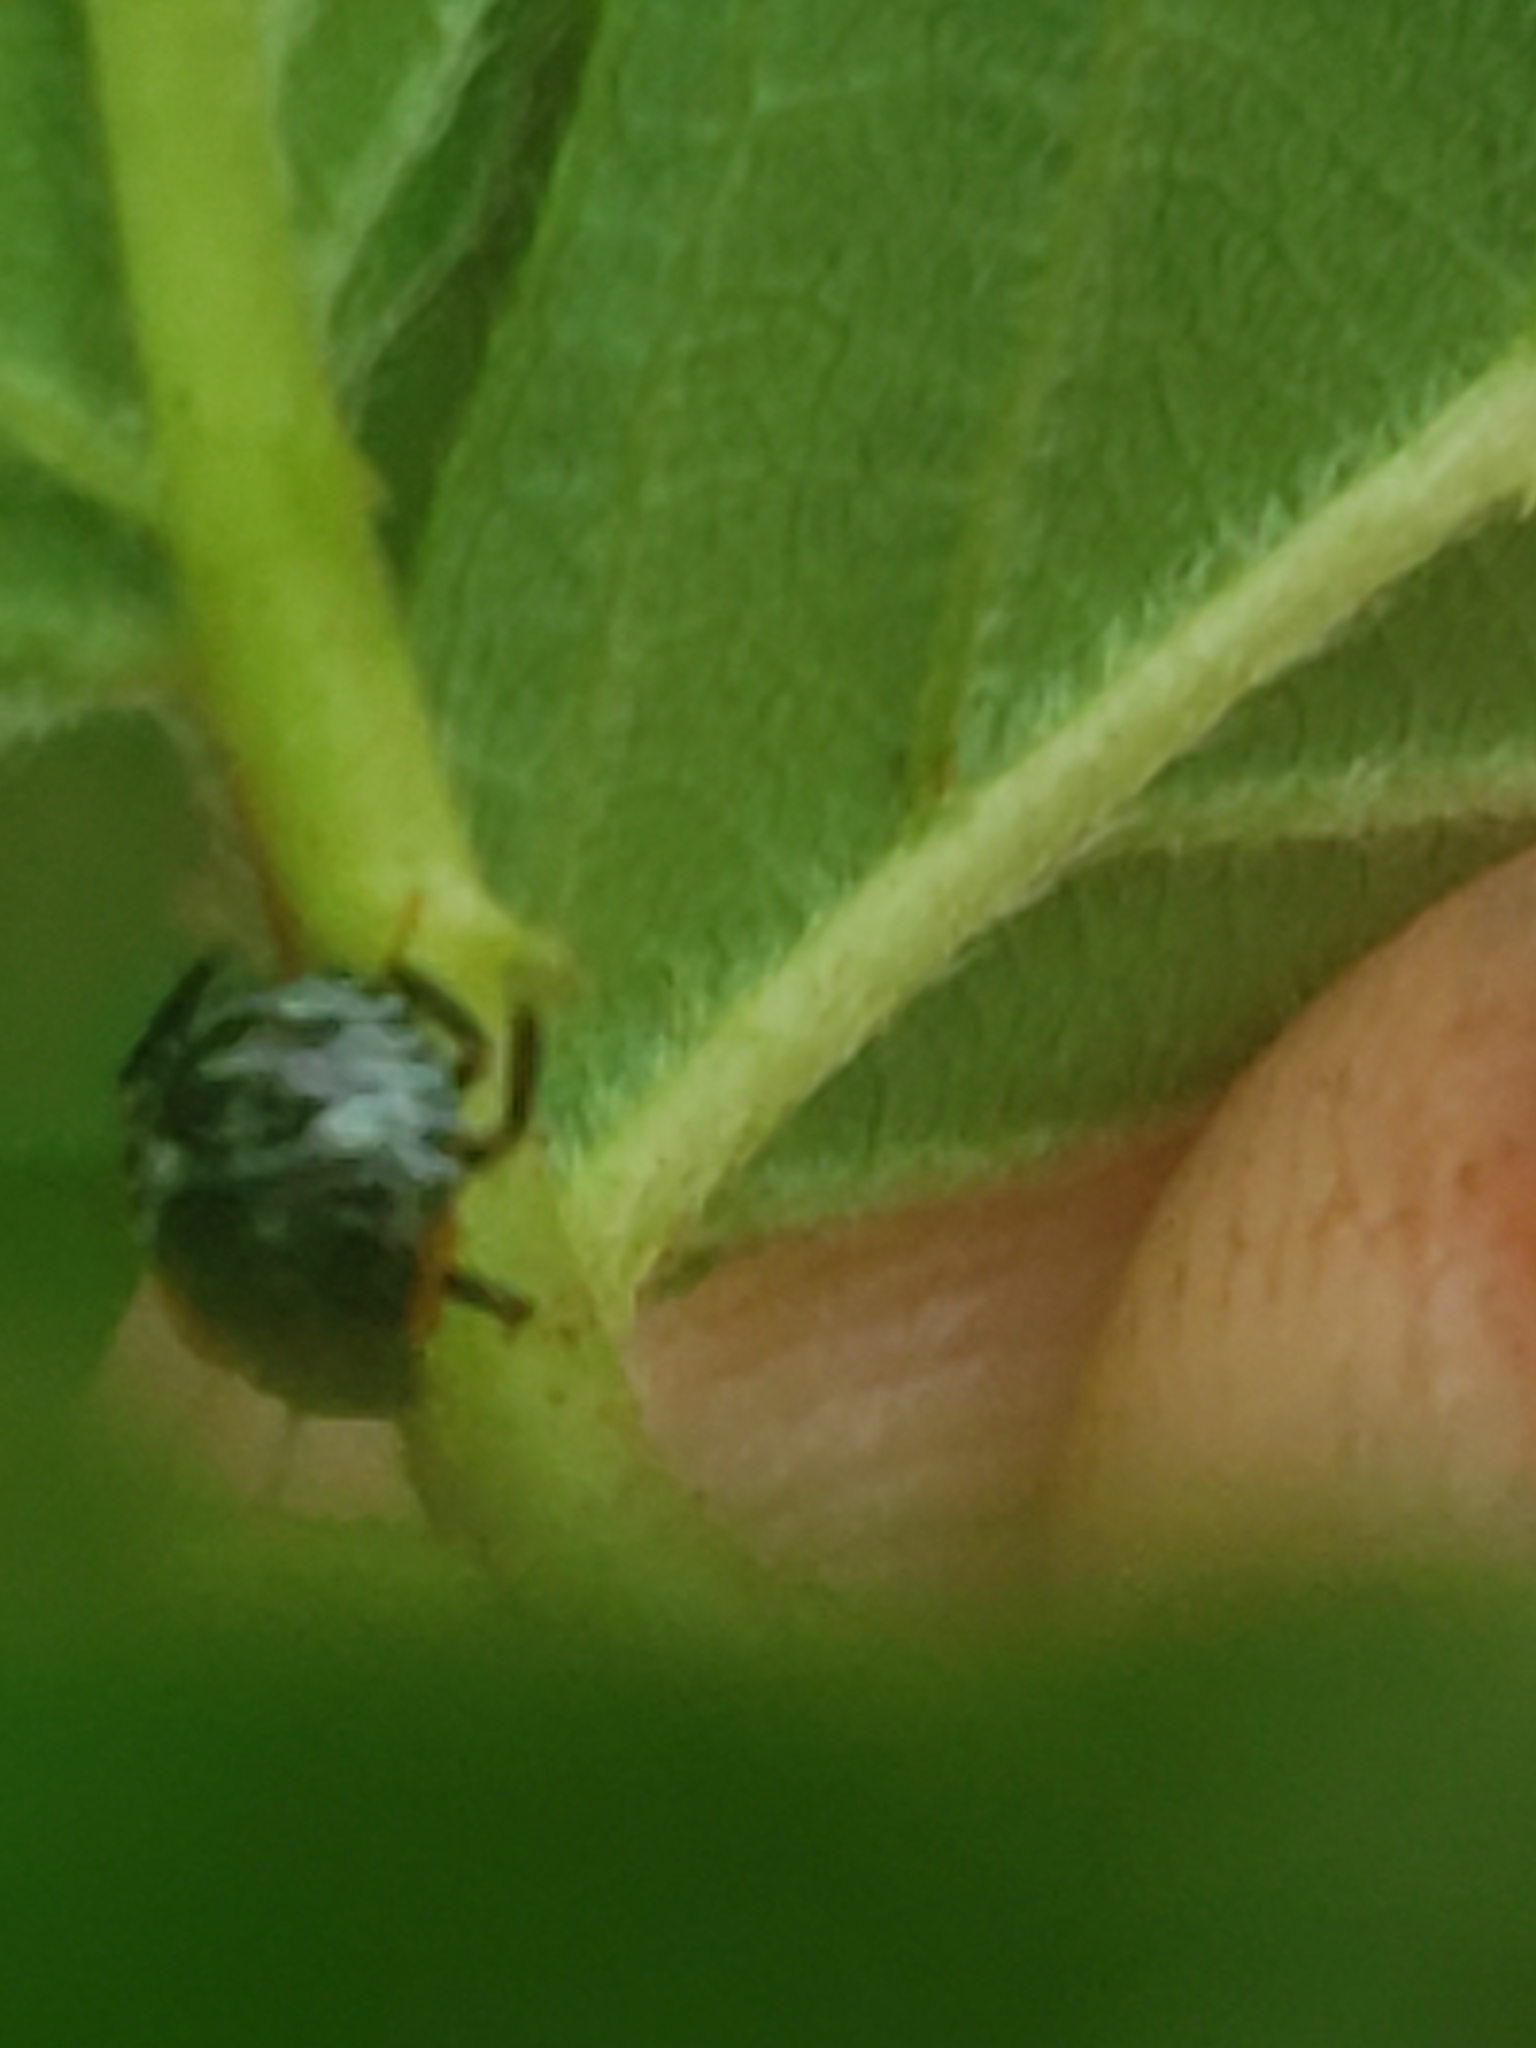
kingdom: Animalia
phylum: Arthropoda
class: Insecta
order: Hemiptera
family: Pentatomidae
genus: Chinavia
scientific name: Chinavia hilaris
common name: Green stink bug
